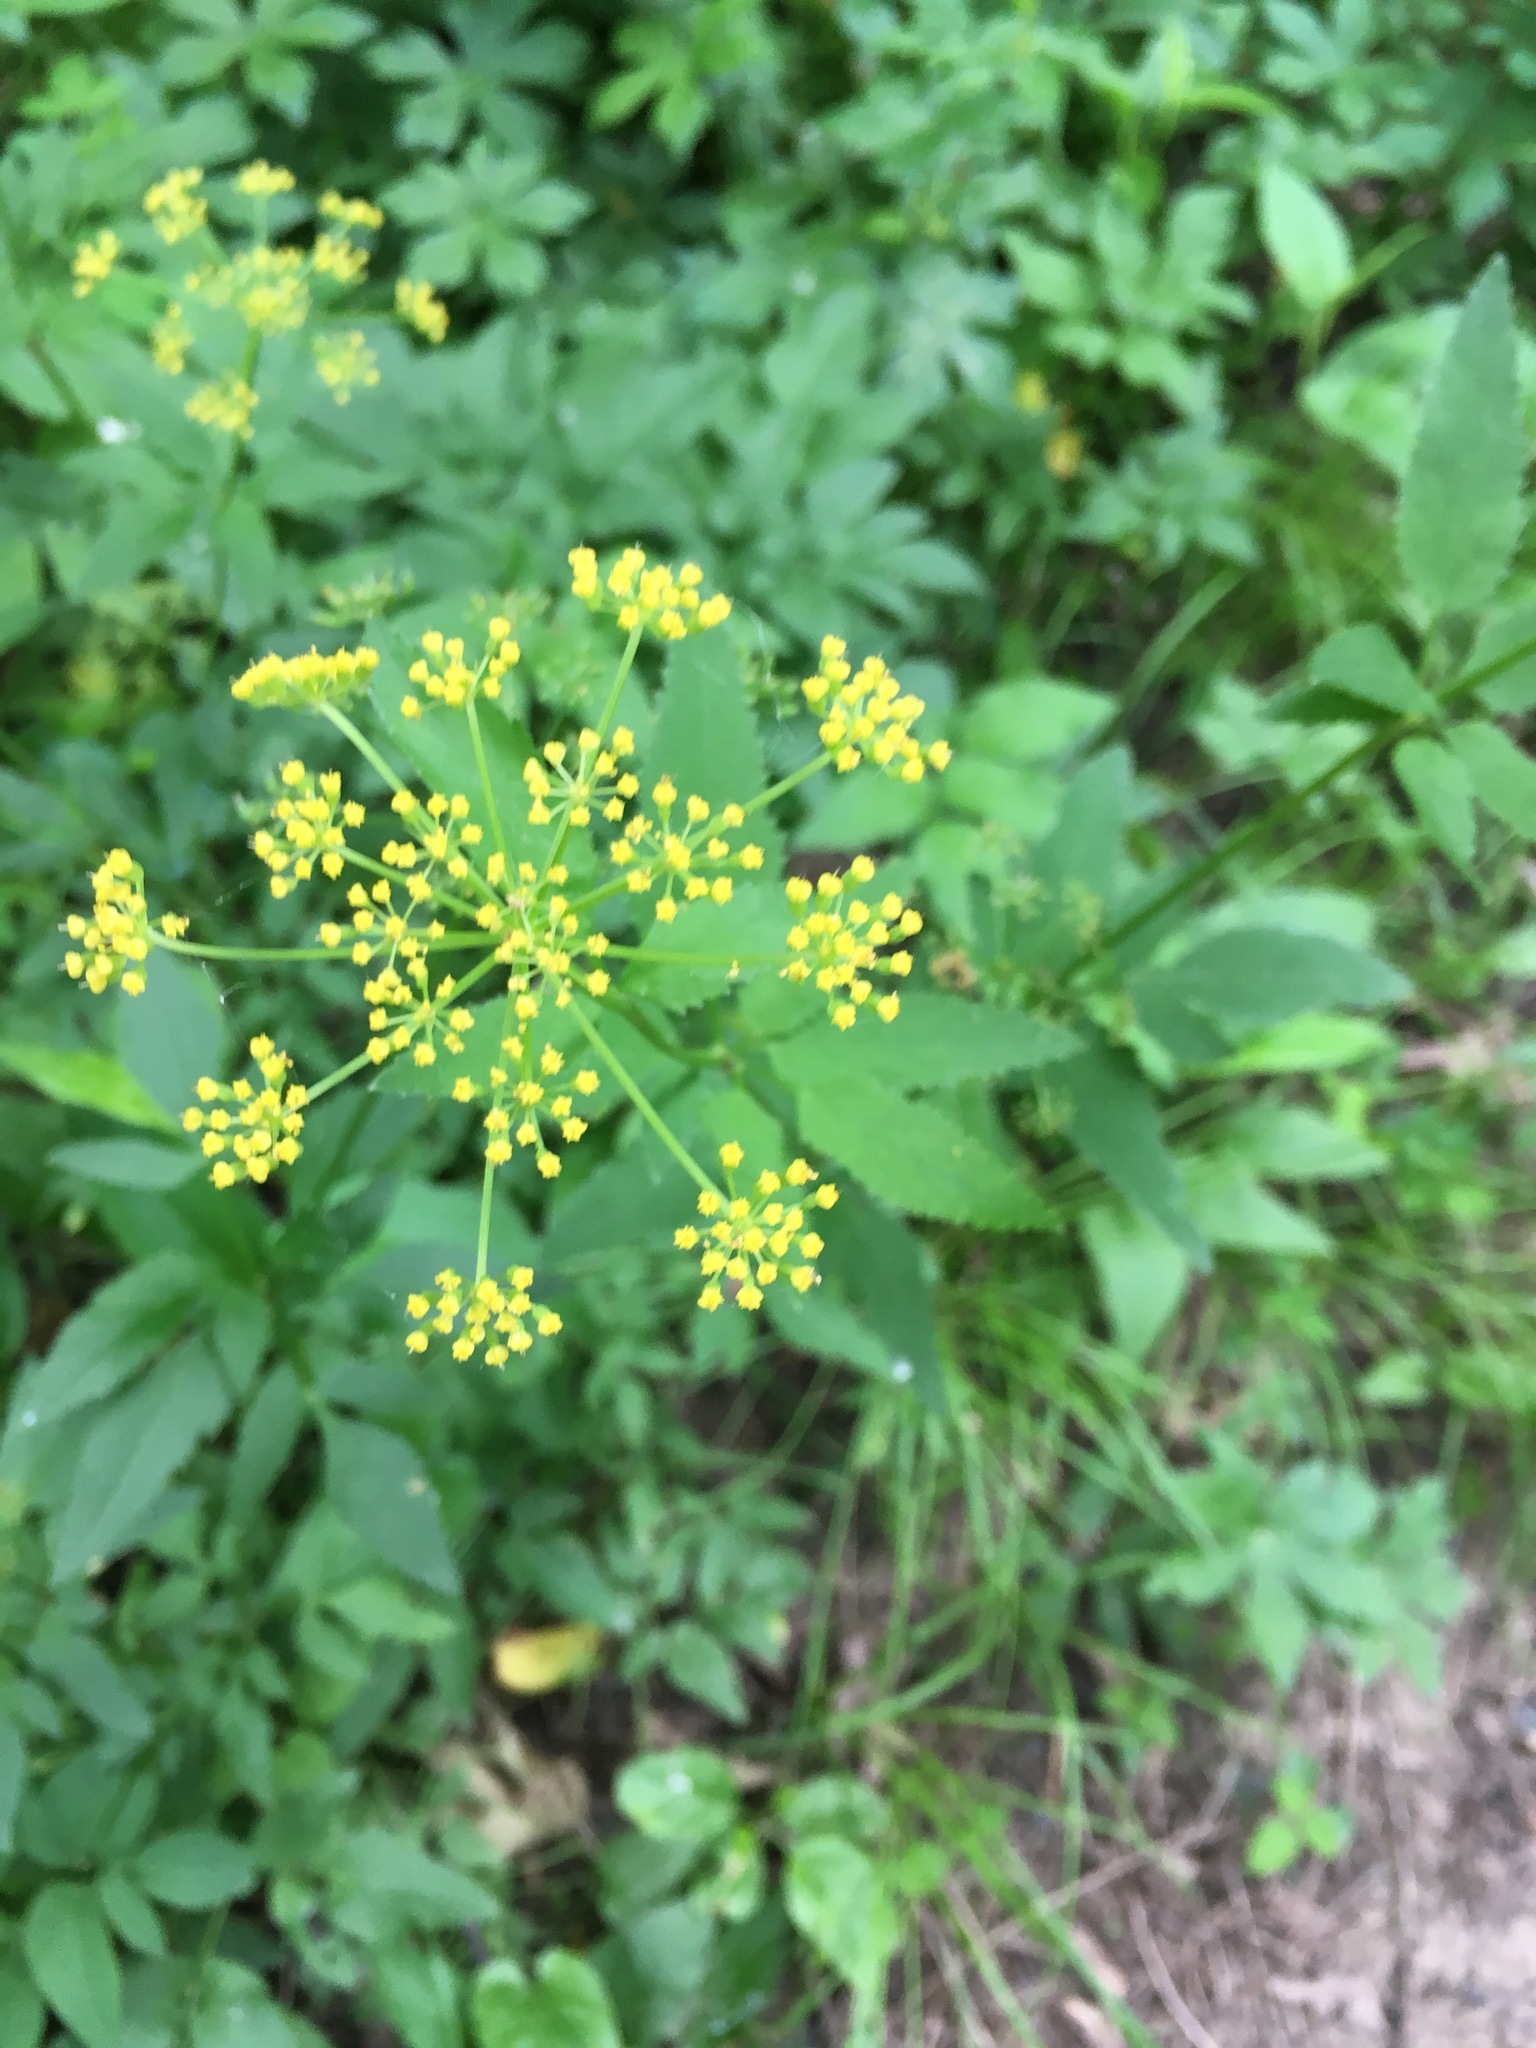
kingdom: Plantae
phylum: Tracheophyta
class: Magnoliopsida
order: Apiales
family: Apiaceae
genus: Zizia
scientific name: Zizia aurea
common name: Golden alexanders
